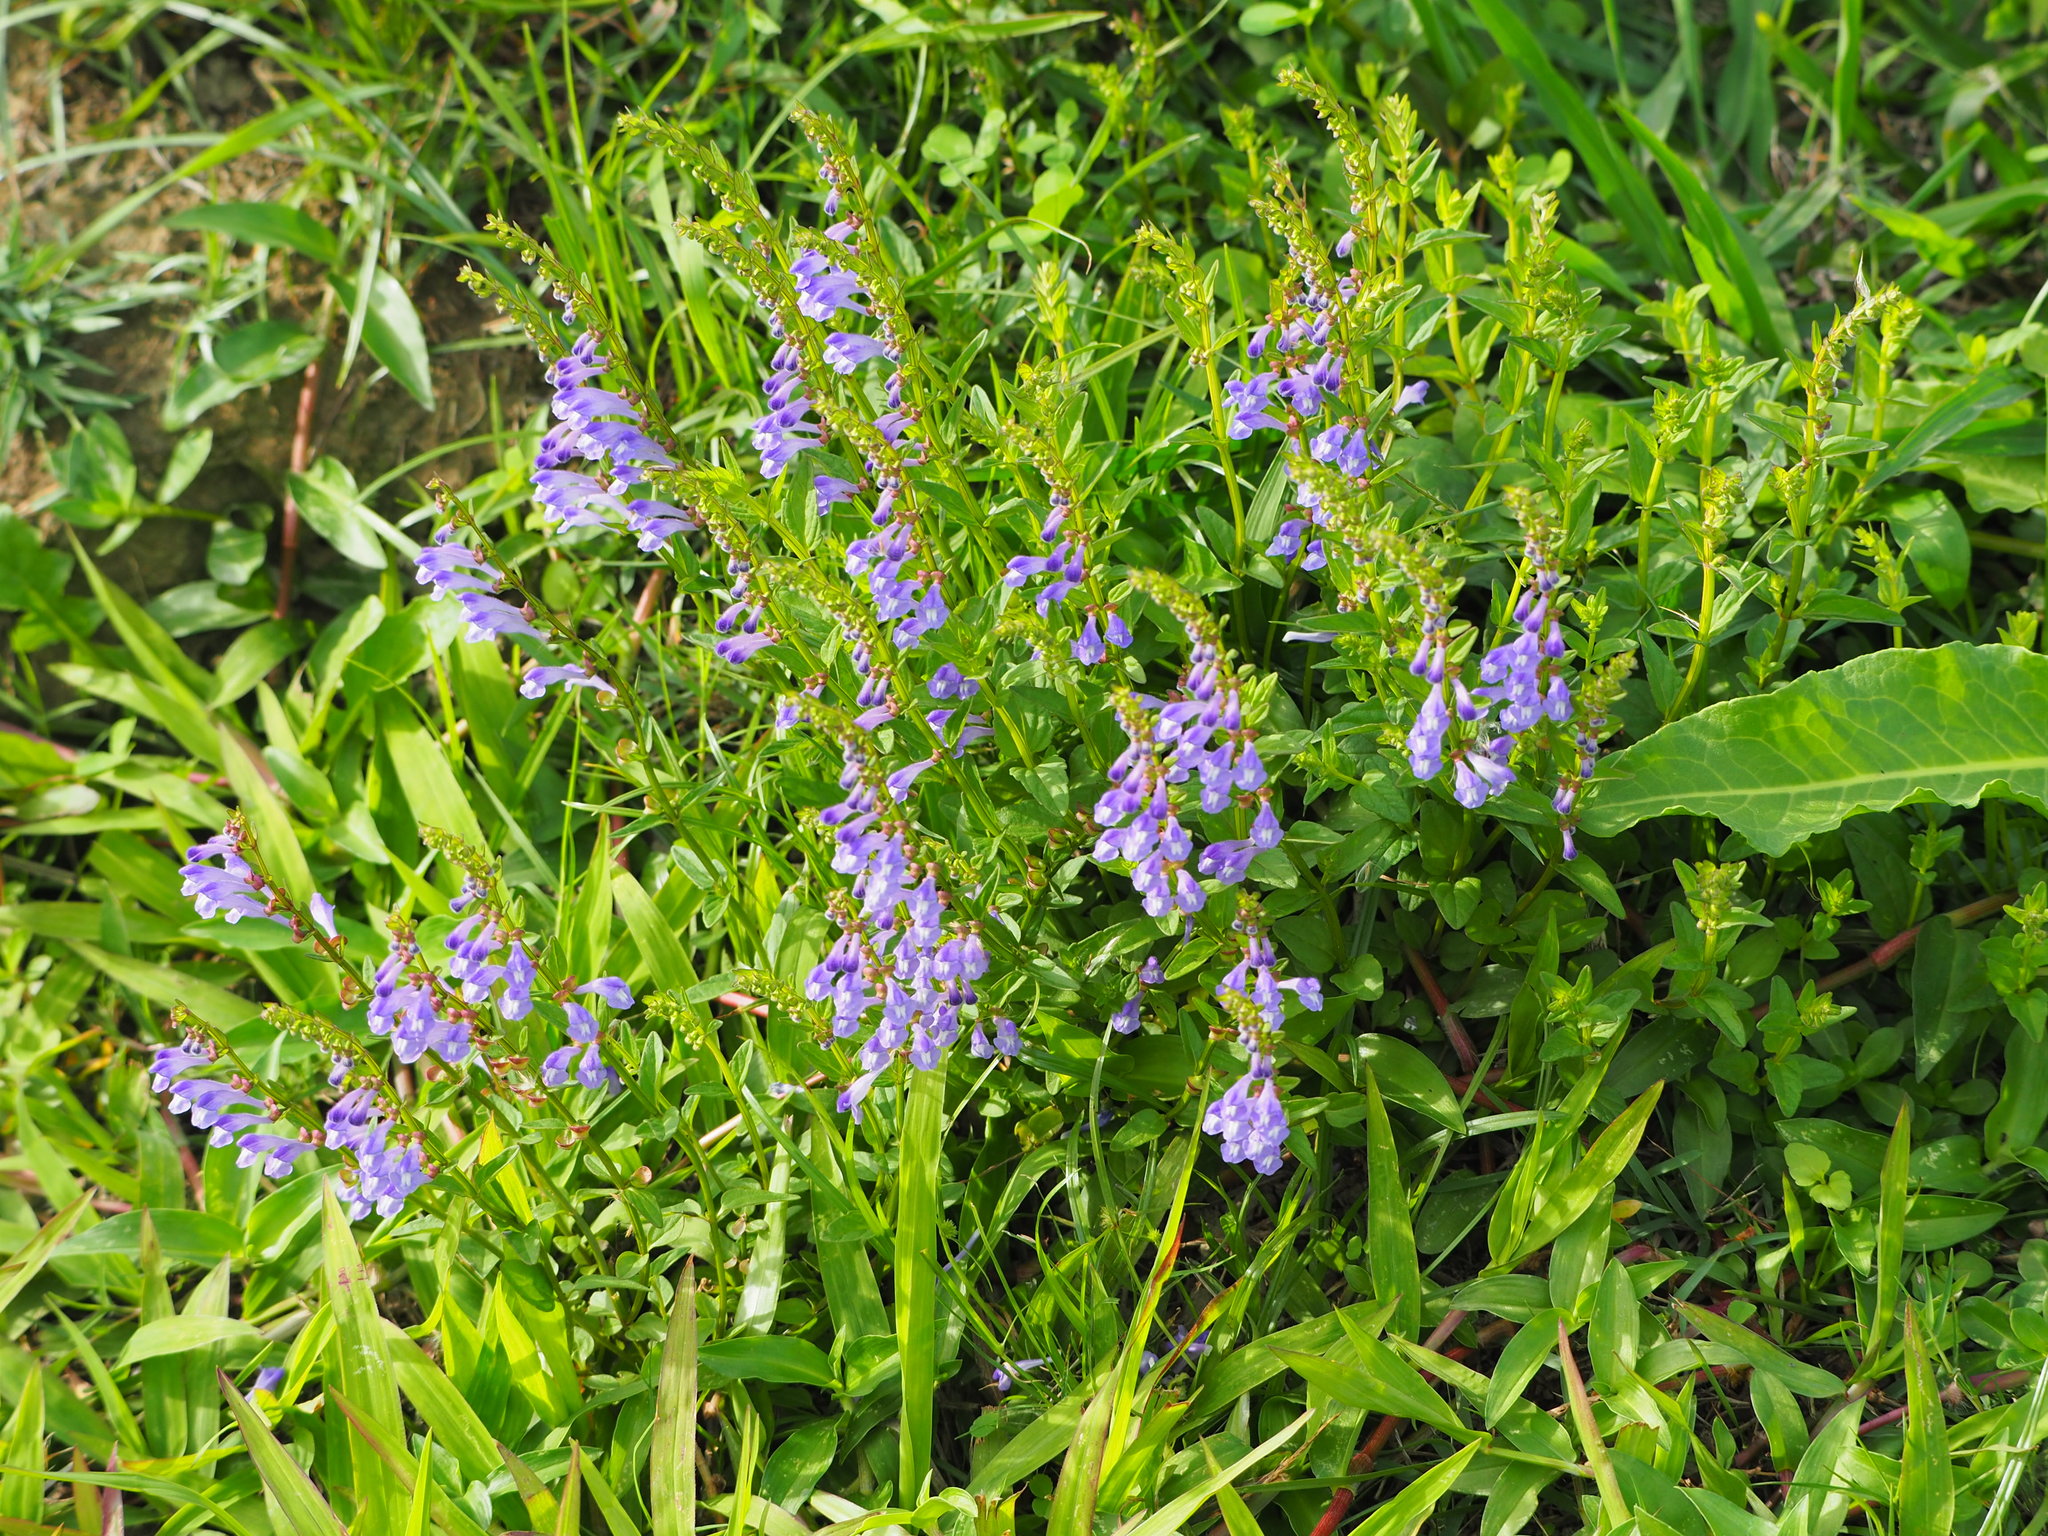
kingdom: Plantae
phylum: Tracheophyta
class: Magnoliopsida
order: Lamiales
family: Lamiaceae
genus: Scutellaria
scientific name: Scutellaria barbata
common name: Barbed skullcap
